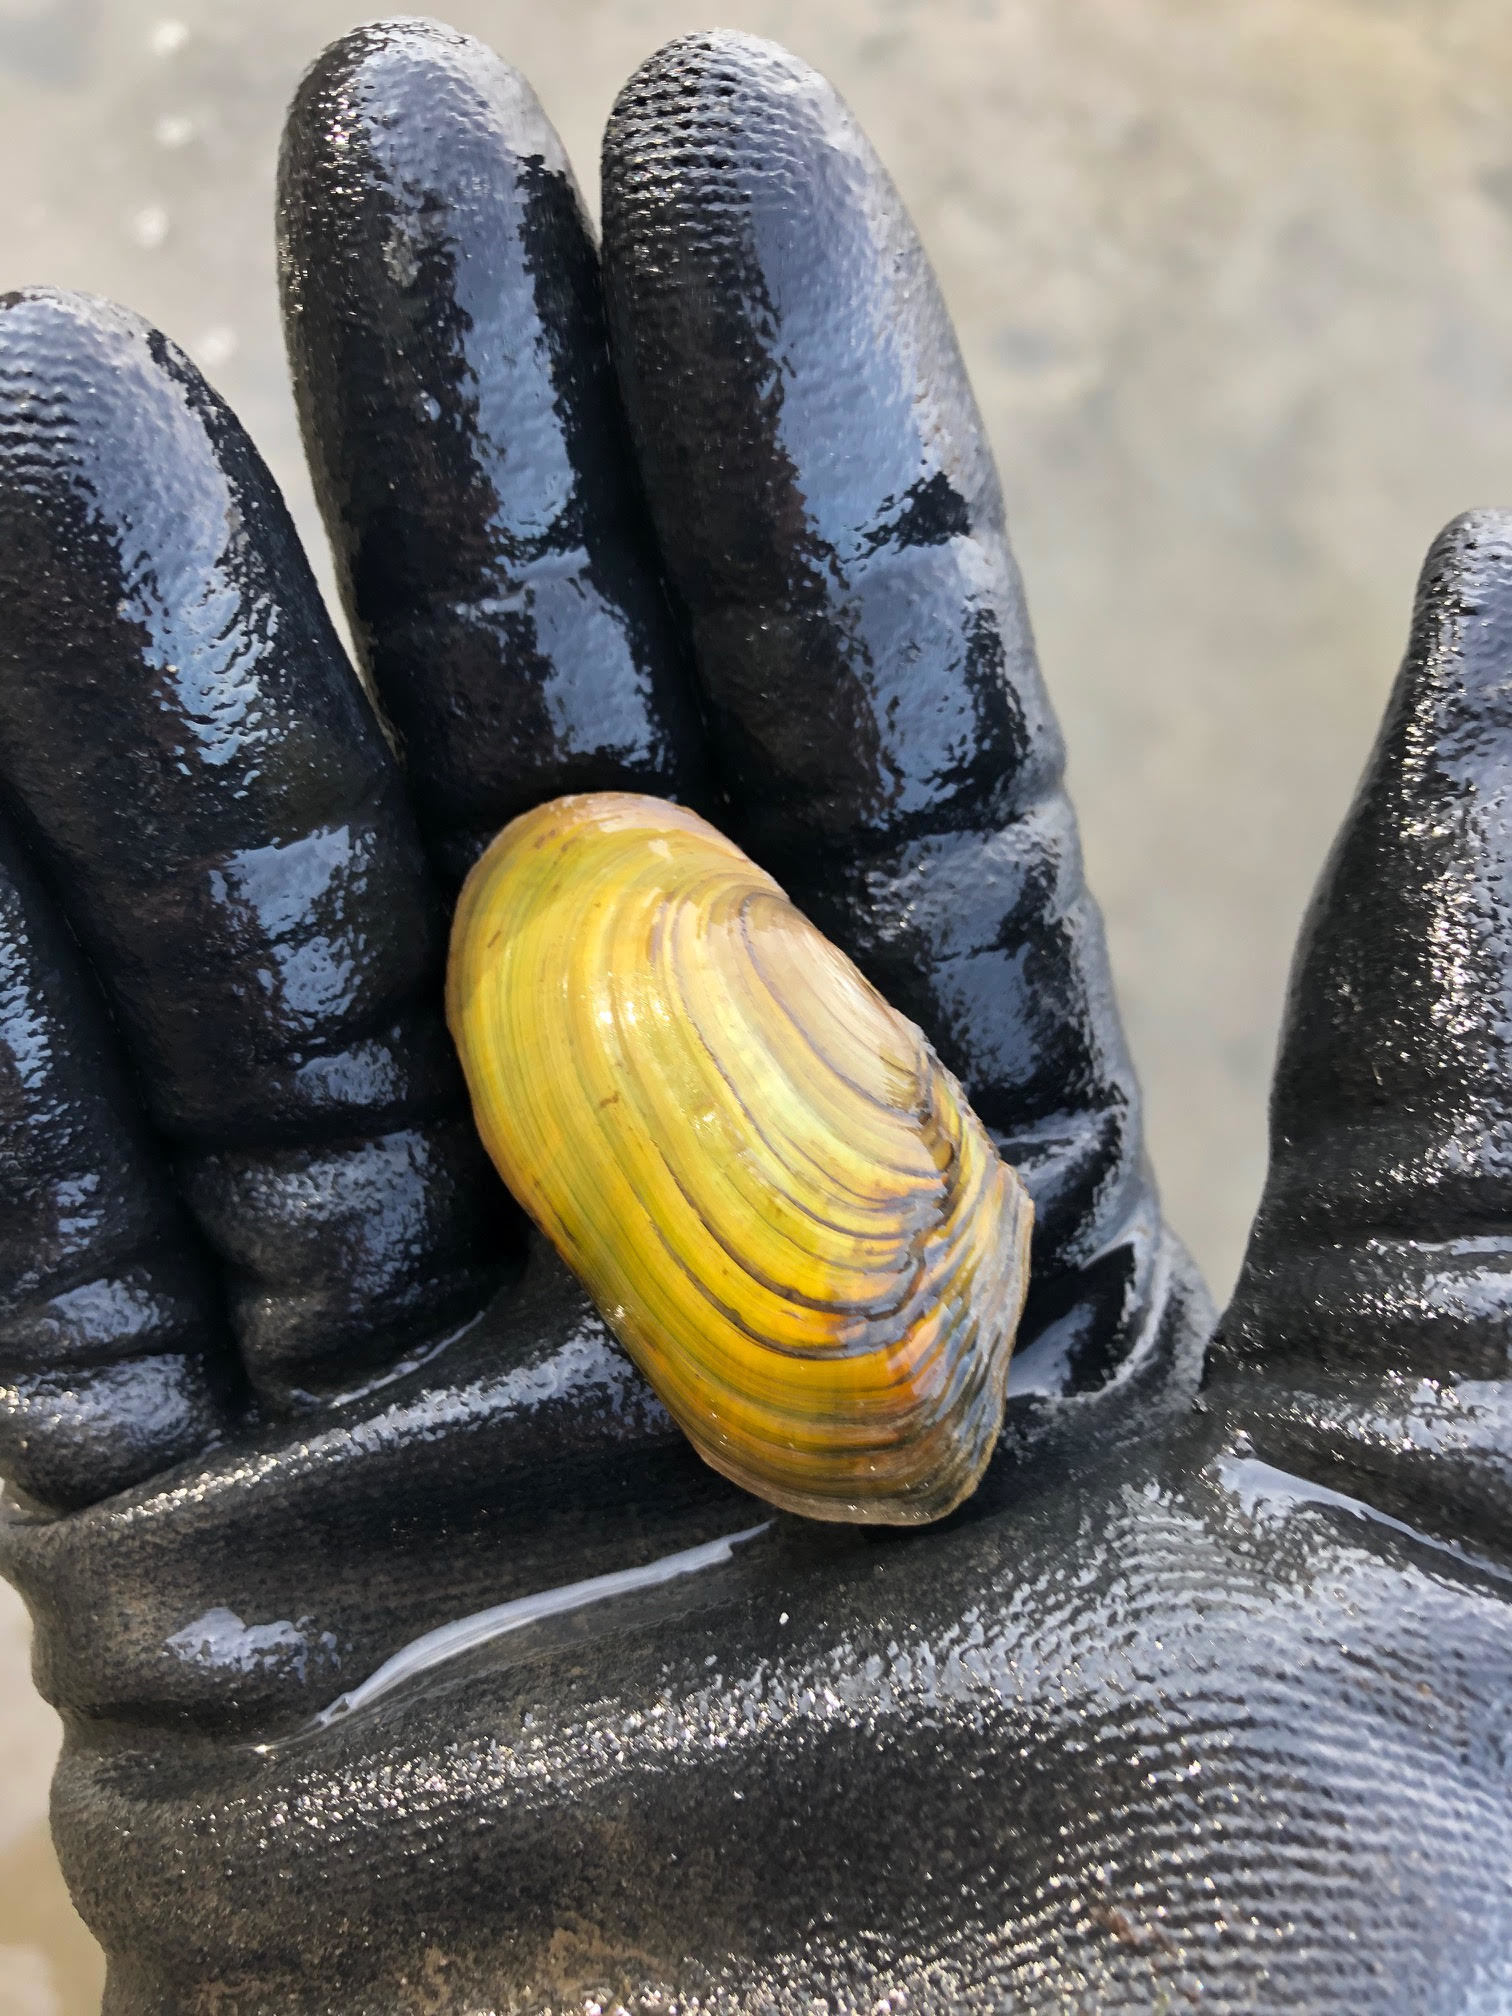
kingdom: Animalia
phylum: Mollusca
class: Bivalvia
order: Unionida
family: Unionidae
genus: Utterbackia
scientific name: Utterbackia imbecillis
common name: Paper pondshell
